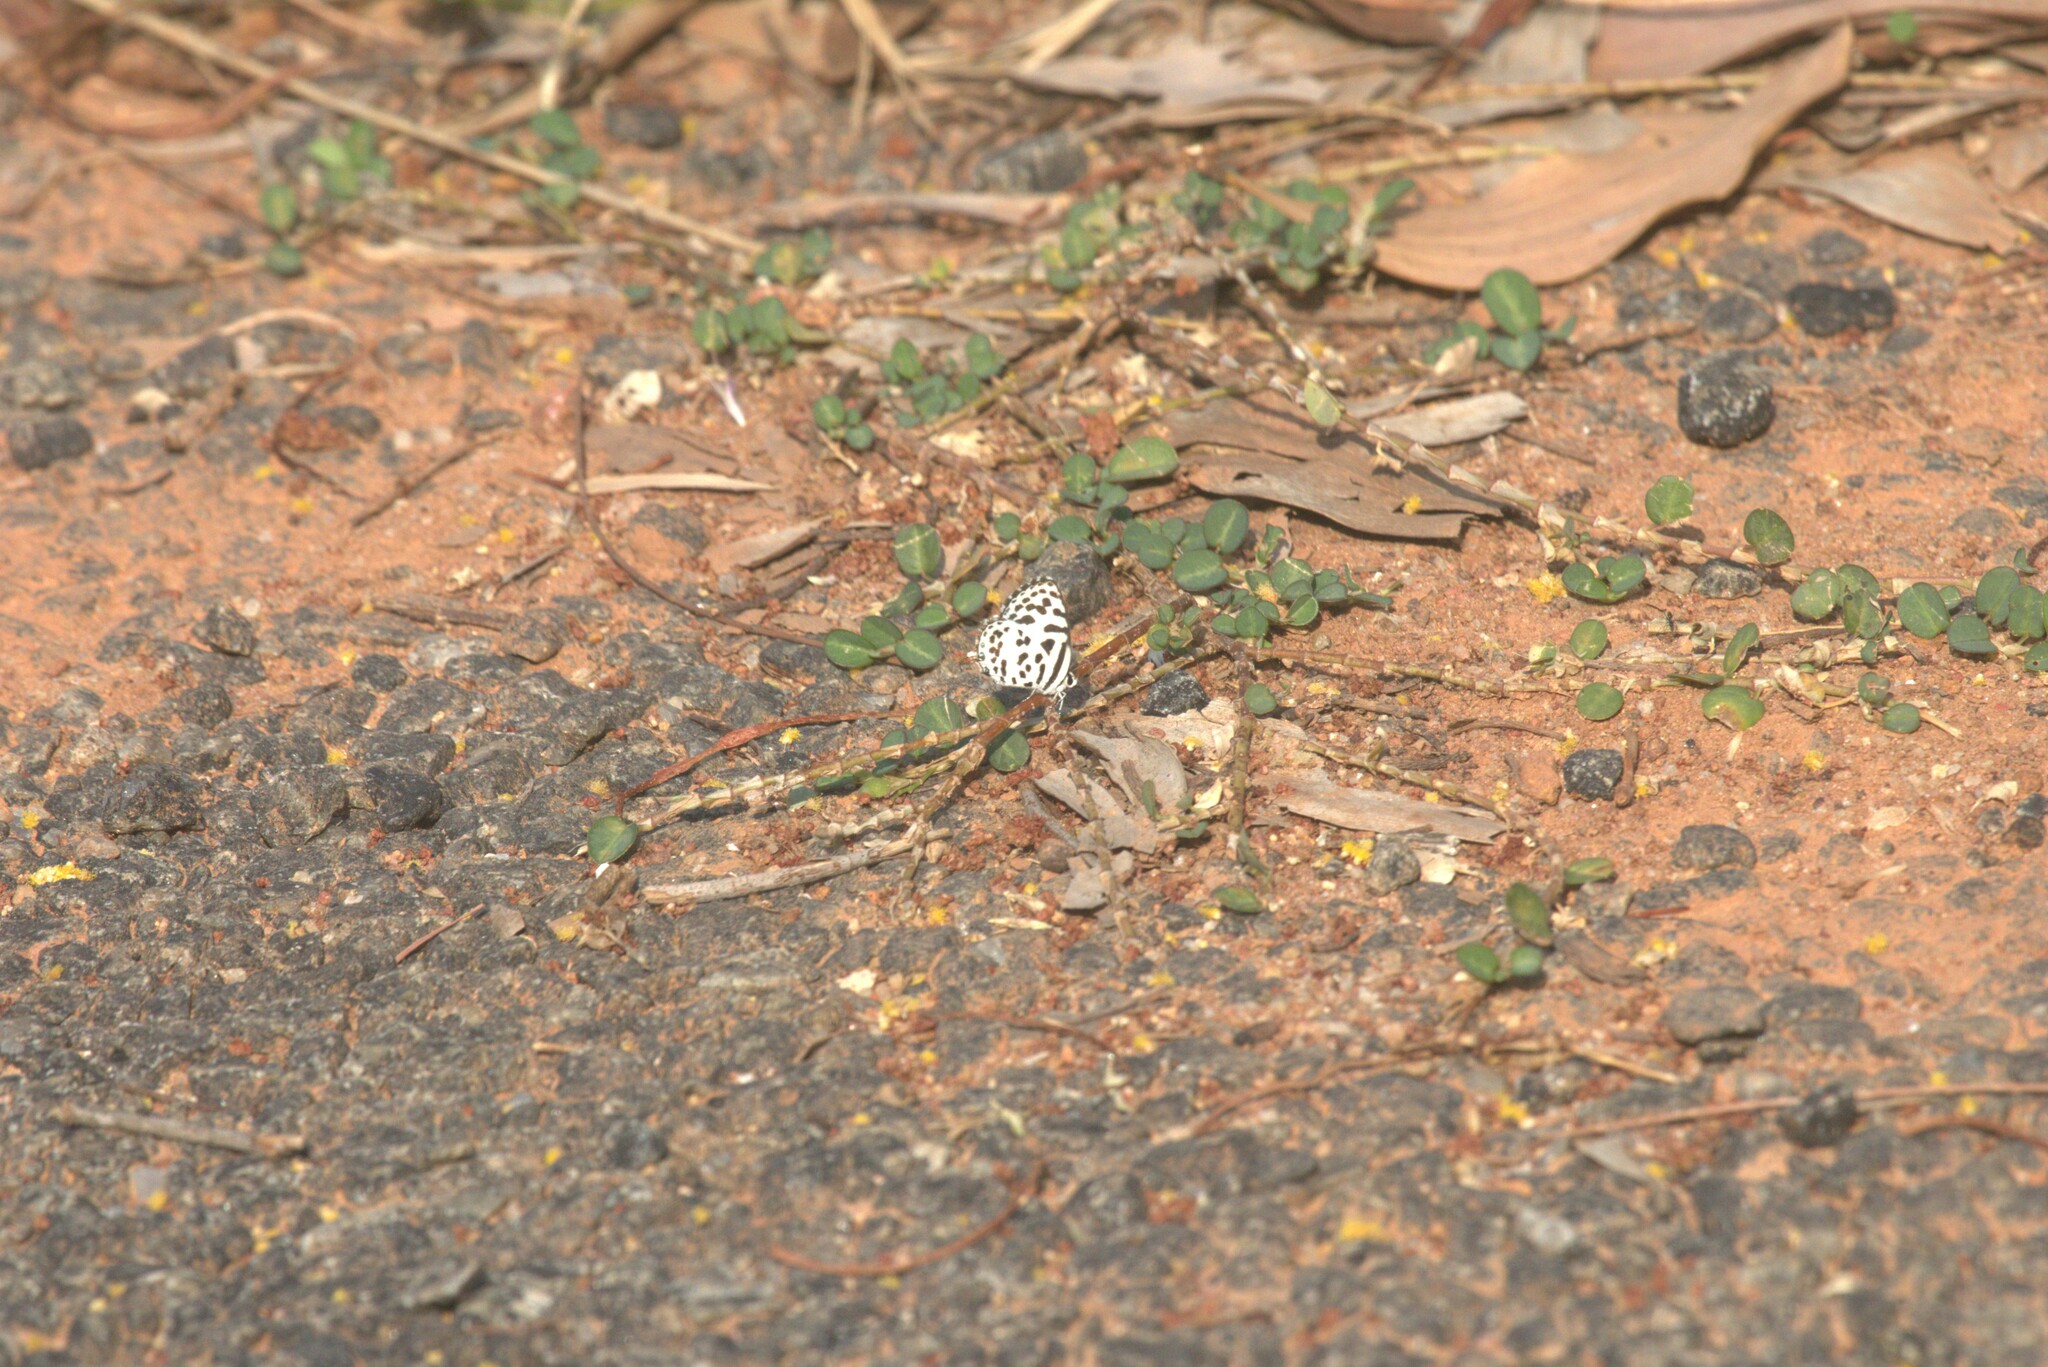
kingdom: Animalia
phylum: Arthropoda
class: Insecta
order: Lepidoptera
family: Lycaenidae
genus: Castalius
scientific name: Castalius rosimon
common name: Common pierrot
